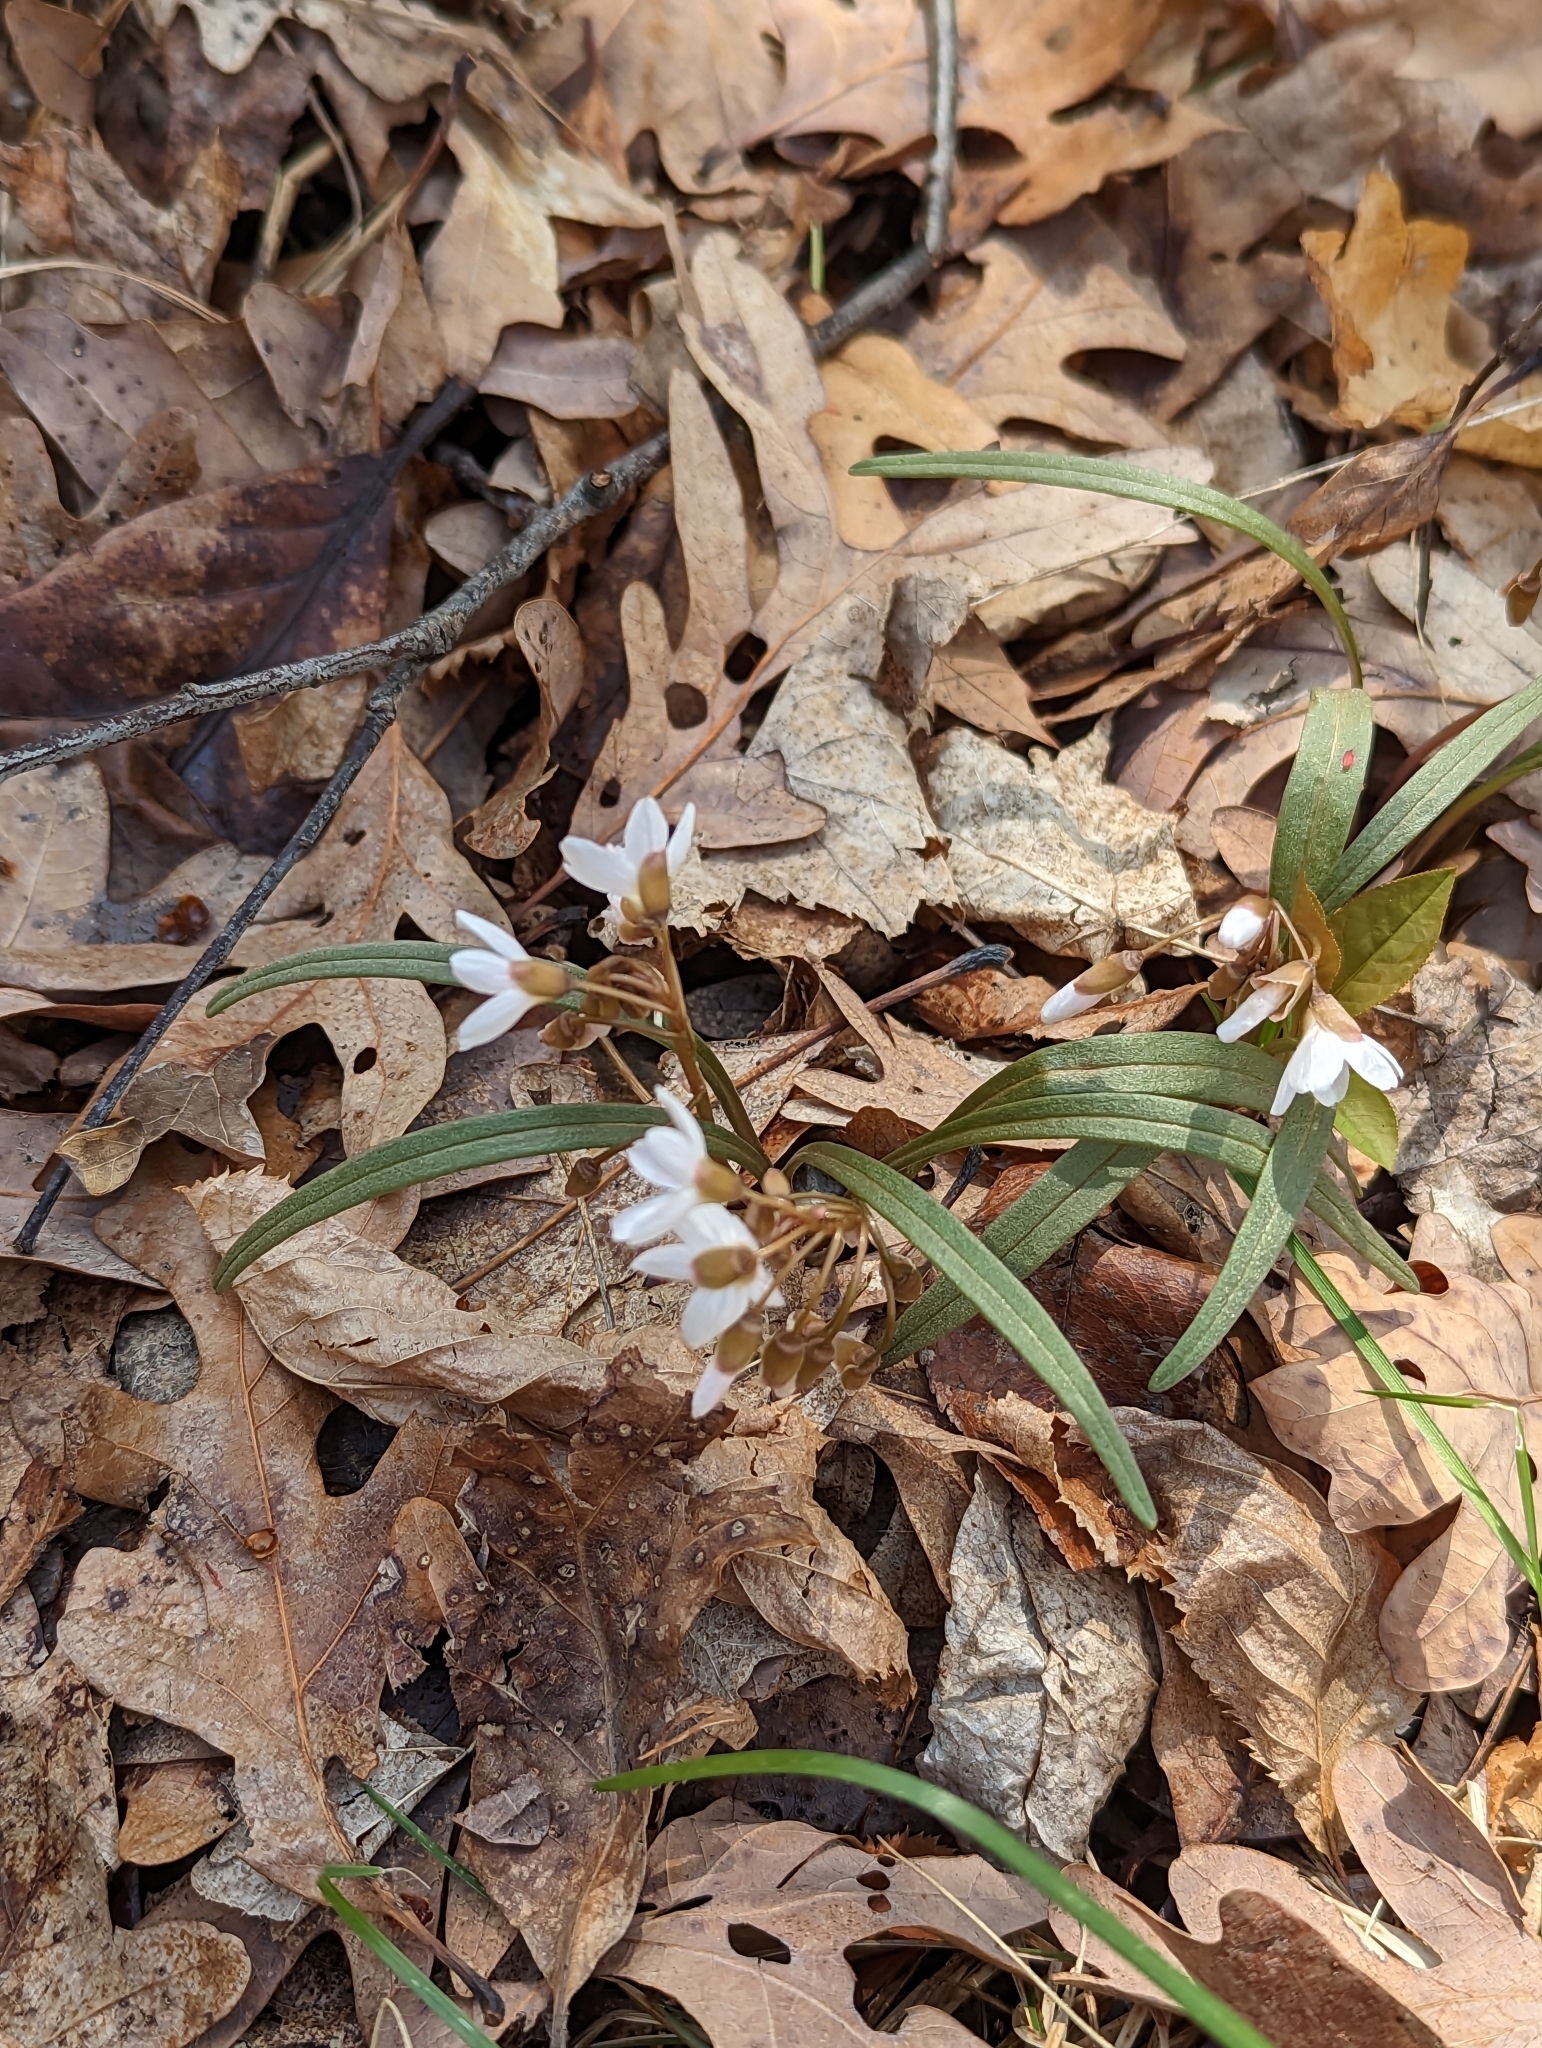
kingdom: Plantae
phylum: Tracheophyta
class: Magnoliopsida
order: Caryophyllales
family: Montiaceae
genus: Claytonia
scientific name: Claytonia virginica
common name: Virginia springbeauty
